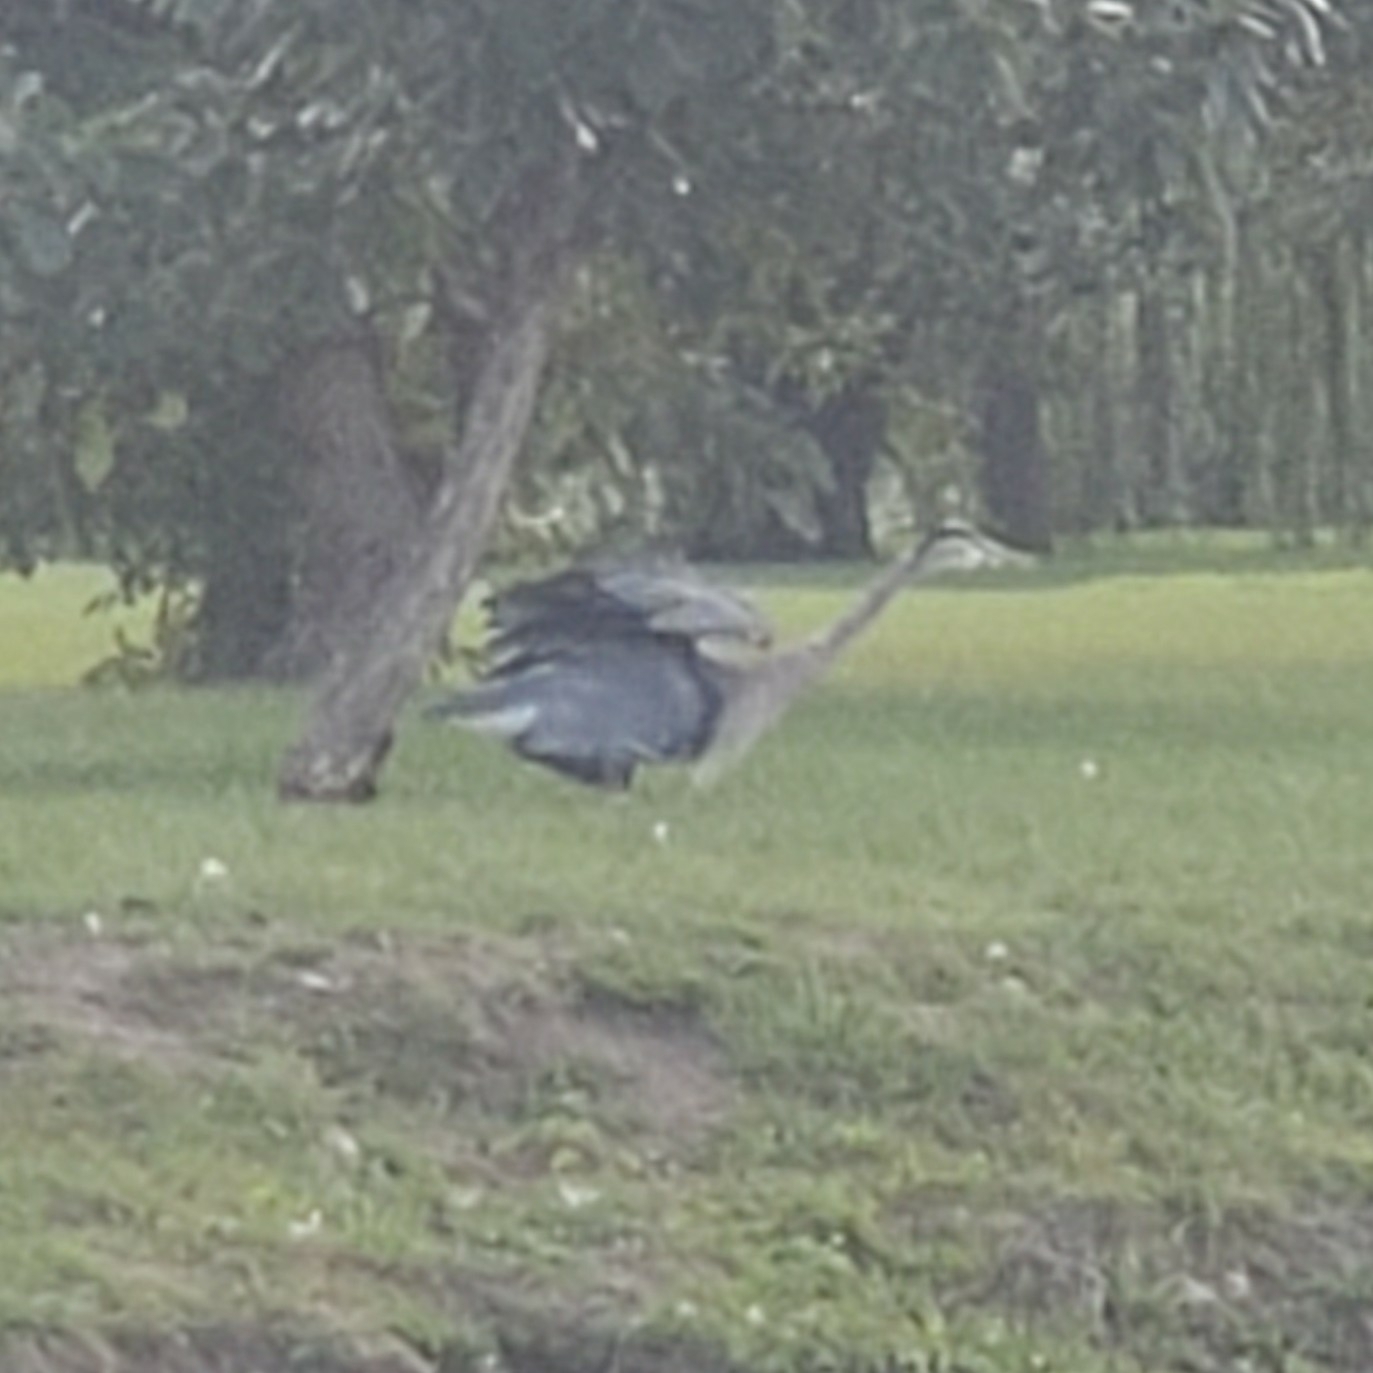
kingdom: Animalia
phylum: Chordata
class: Aves
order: Pelecaniformes
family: Ardeidae
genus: Ardea
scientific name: Ardea herodias
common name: Great blue heron
